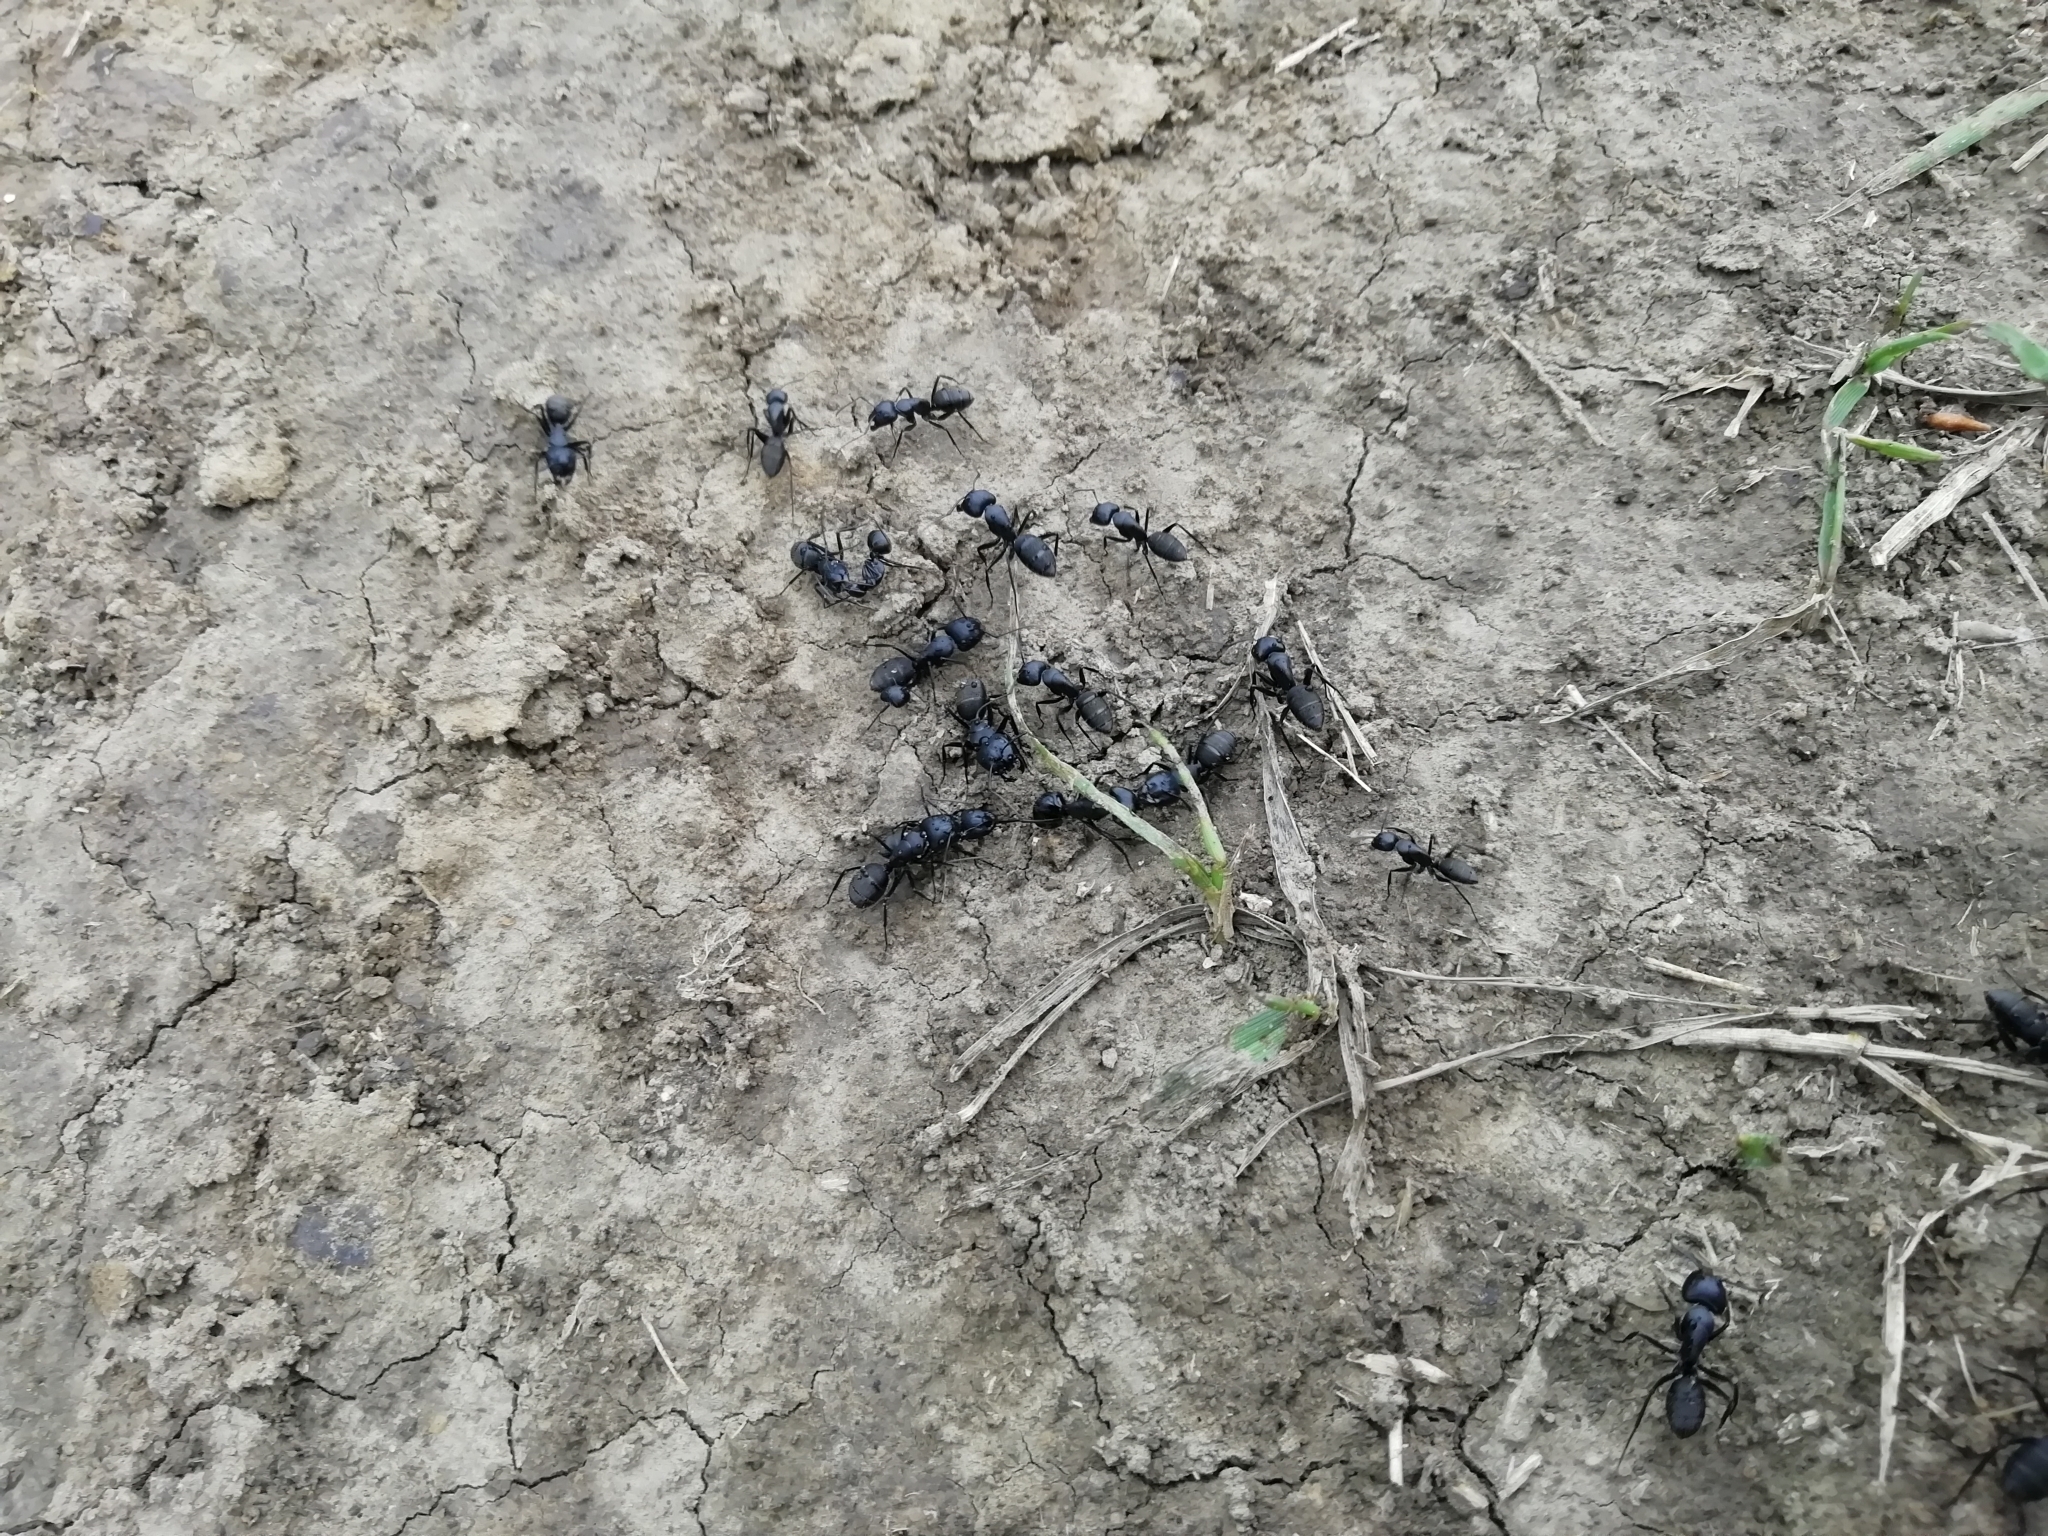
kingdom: Animalia
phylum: Arthropoda
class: Insecta
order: Hymenoptera
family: Formicidae
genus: Camponotus
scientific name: Camponotus saxatilis
